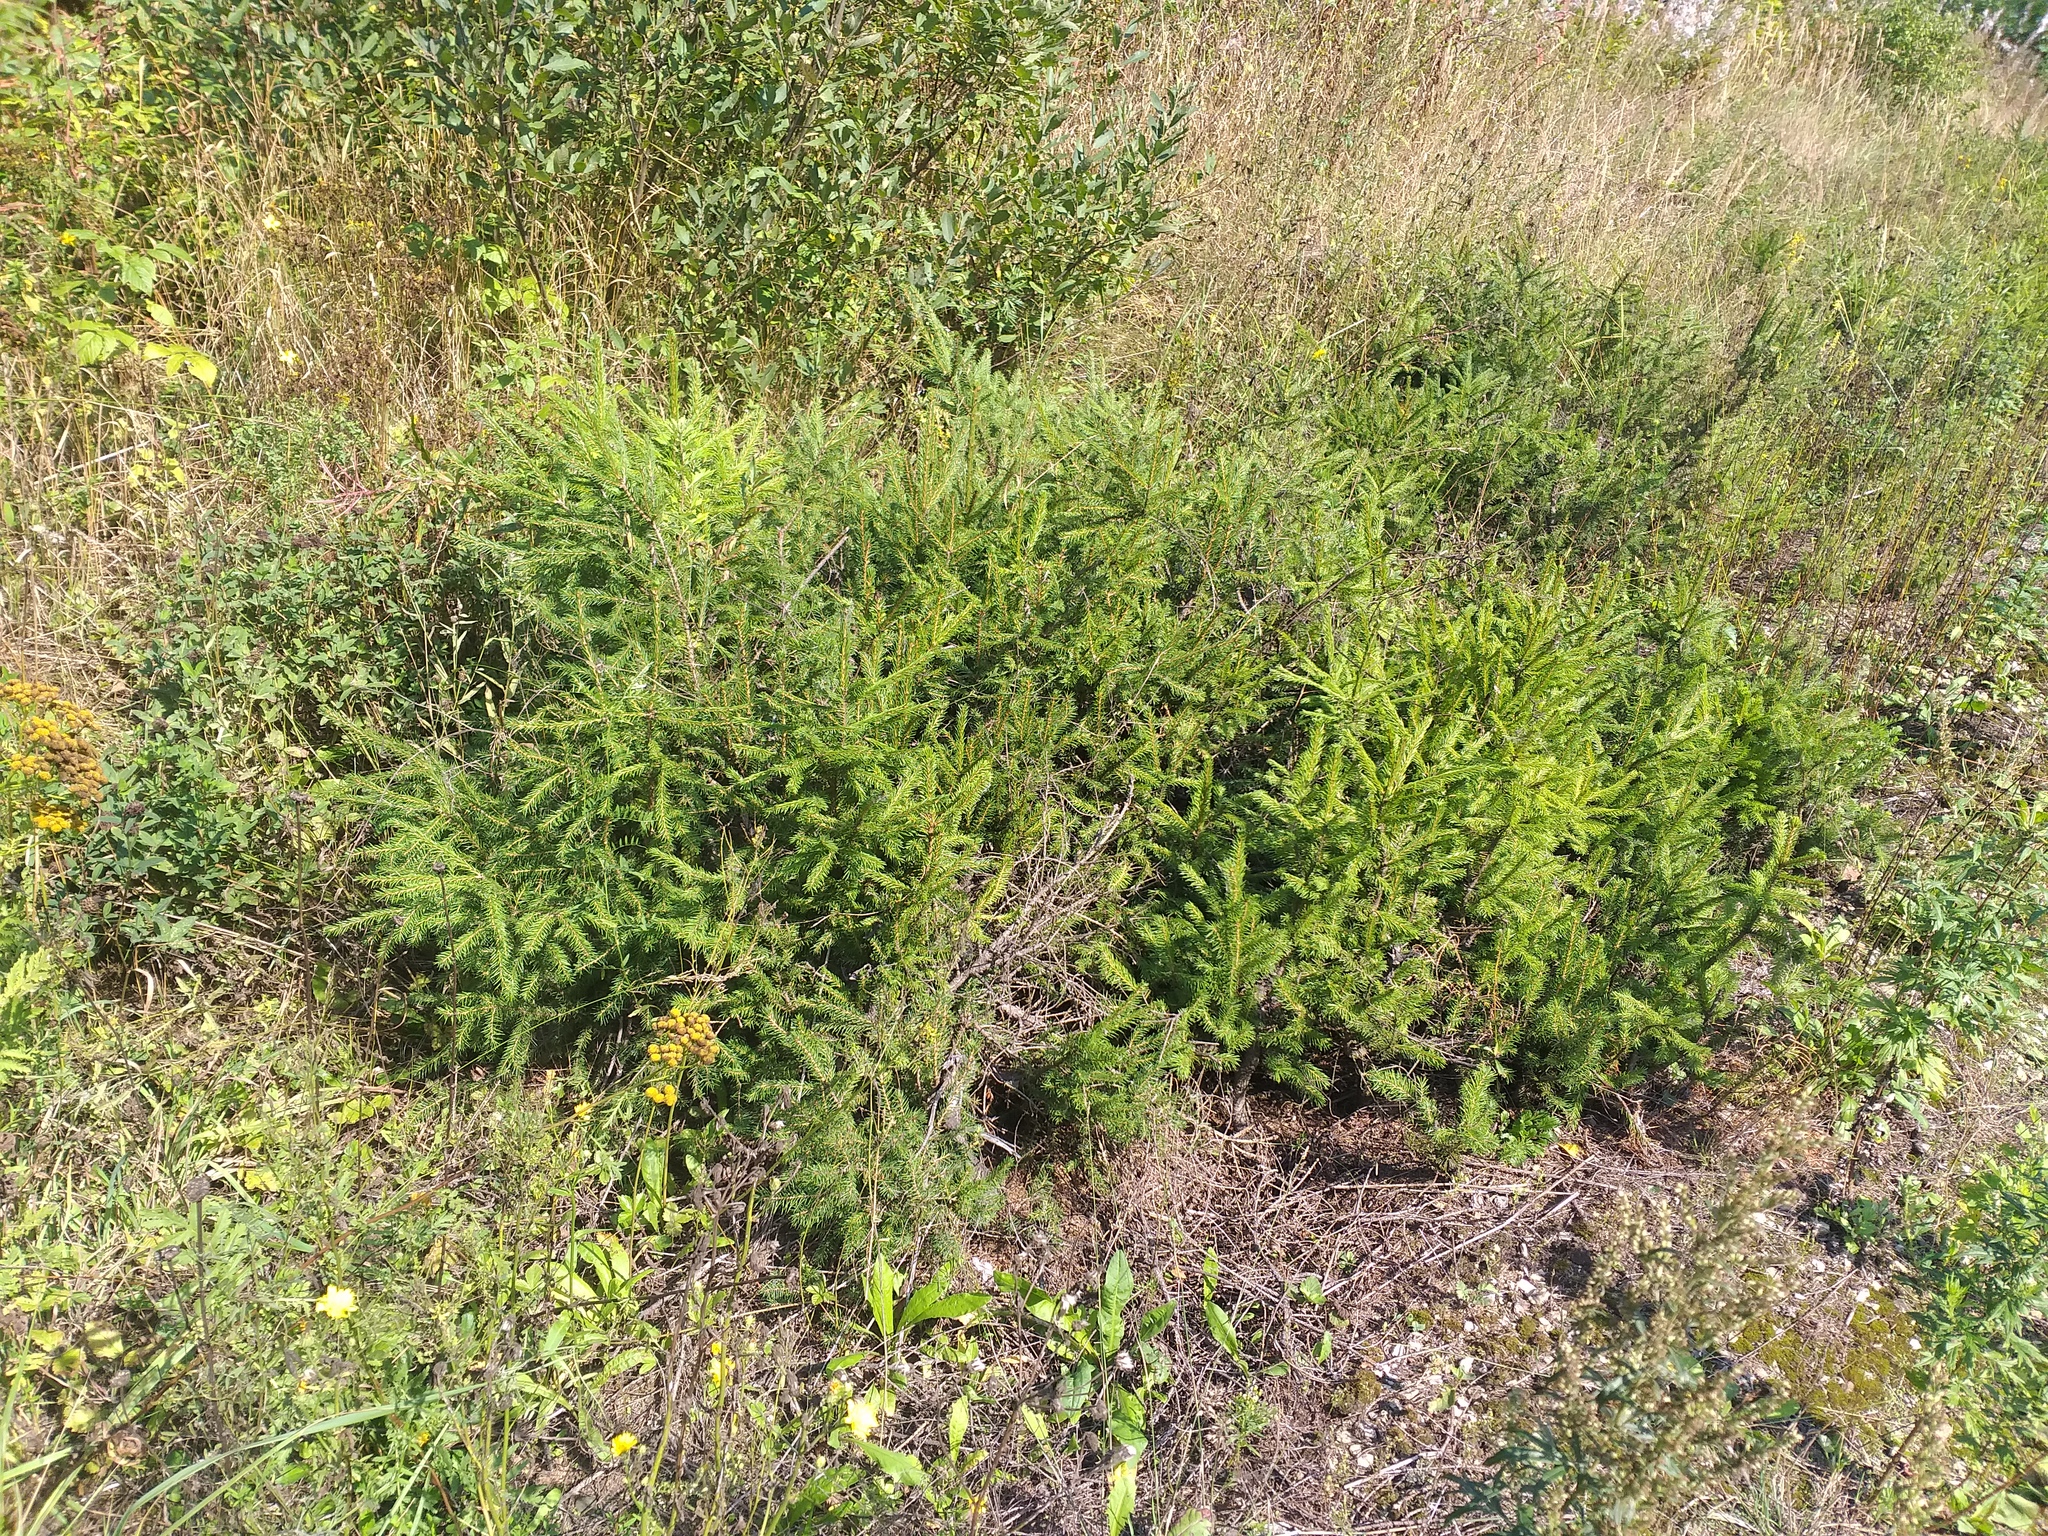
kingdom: Plantae
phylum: Tracheophyta
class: Pinopsida
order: Pinales
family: Pinaceae
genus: Picea
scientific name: Picea abies
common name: Norway spruce
